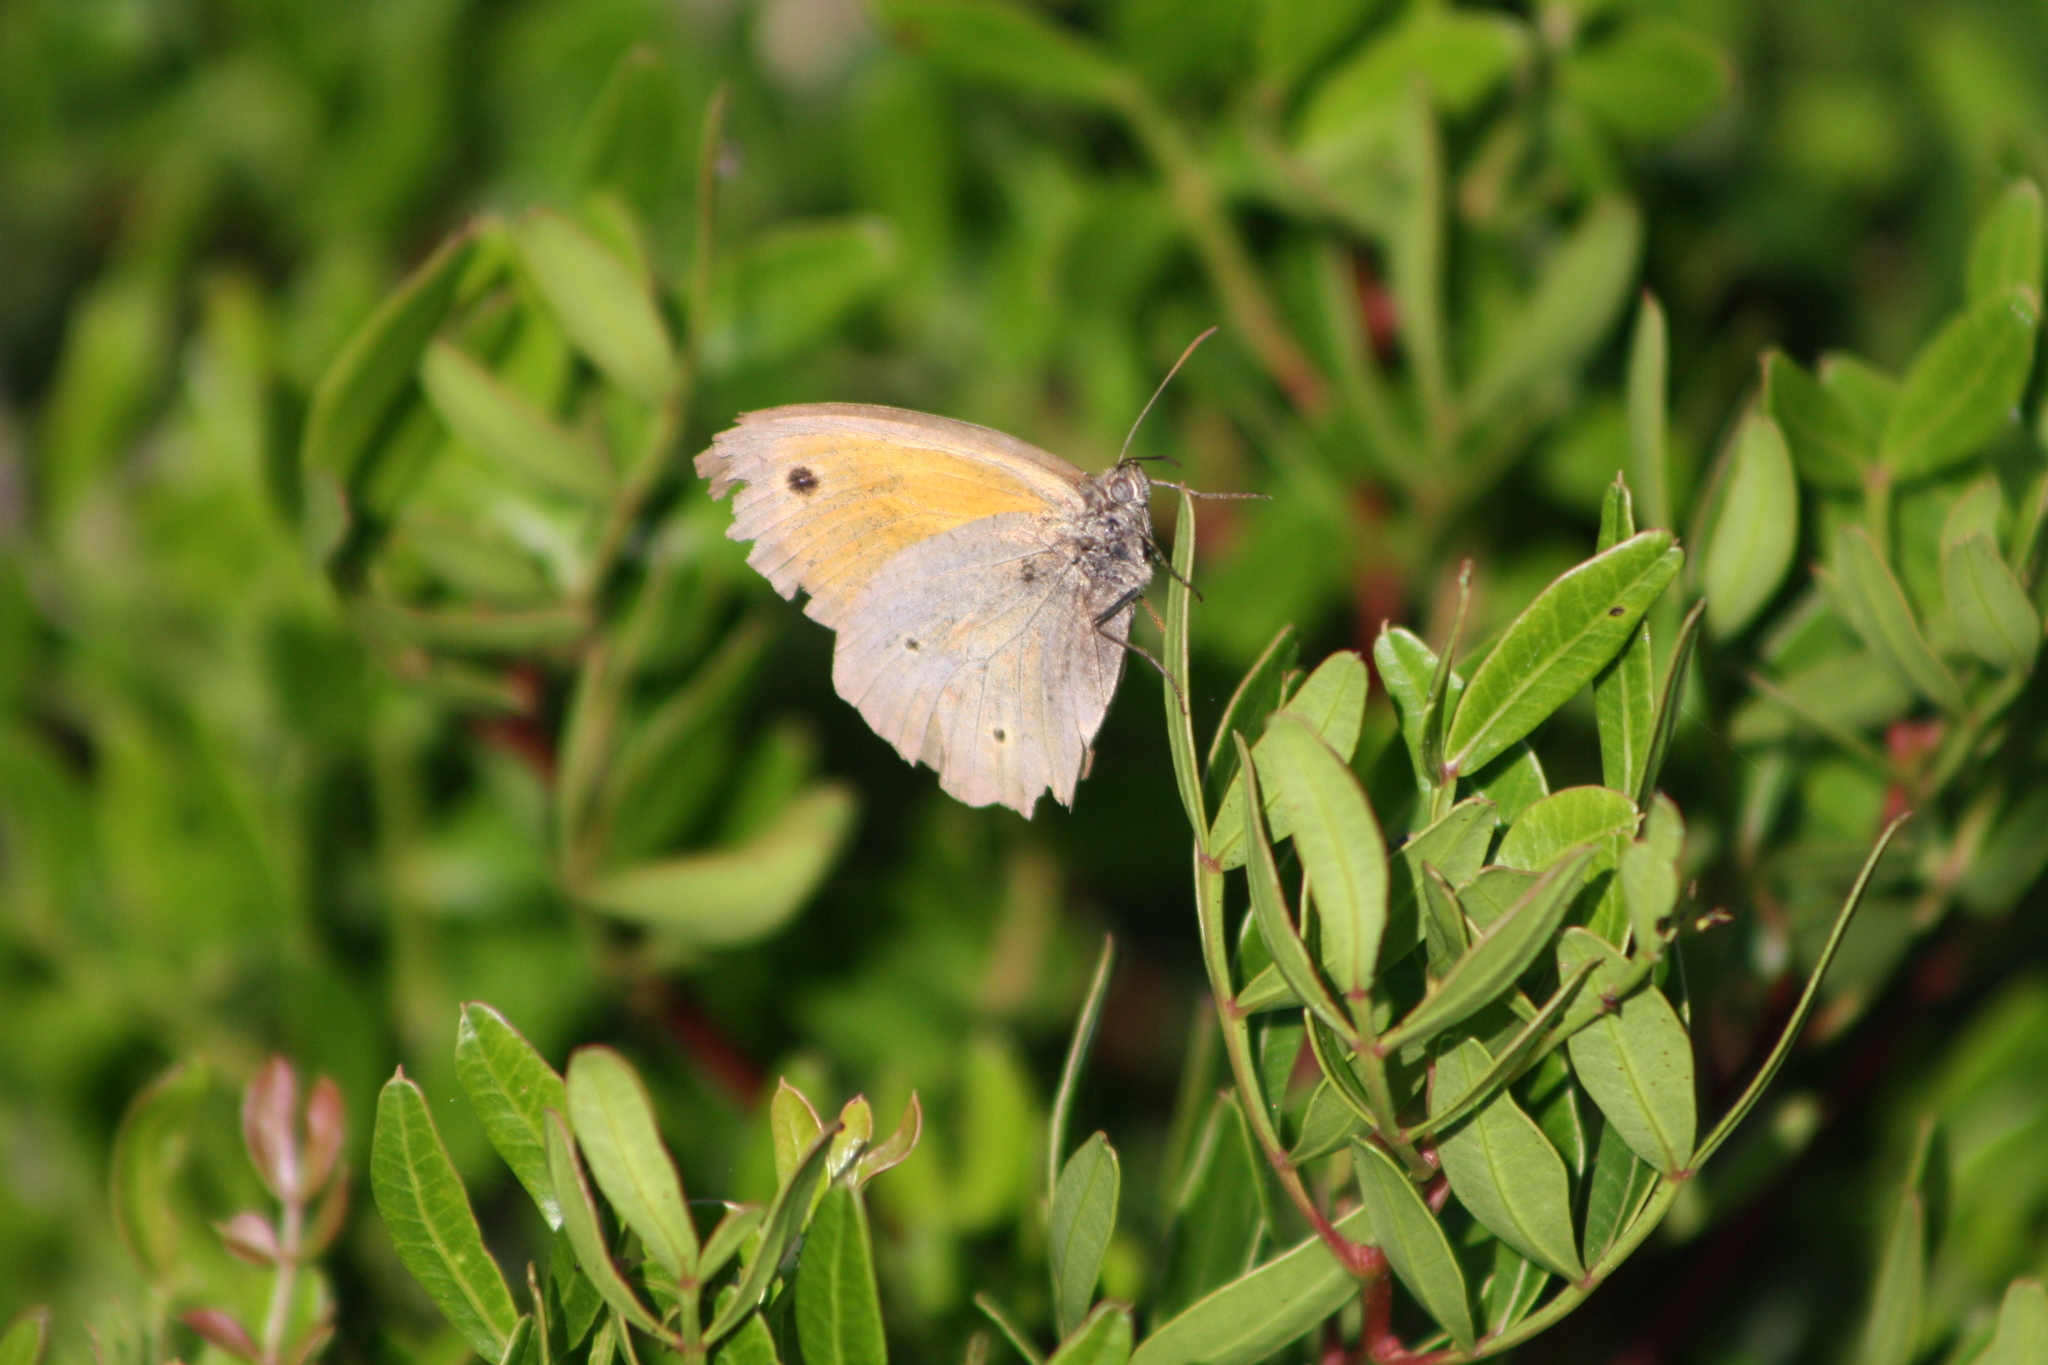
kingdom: Animalia
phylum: Arthropoda
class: Insecta
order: Lepidoptera
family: Nymphalidae
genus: Maniola
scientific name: Maniola jurtina
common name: Meadow brown
